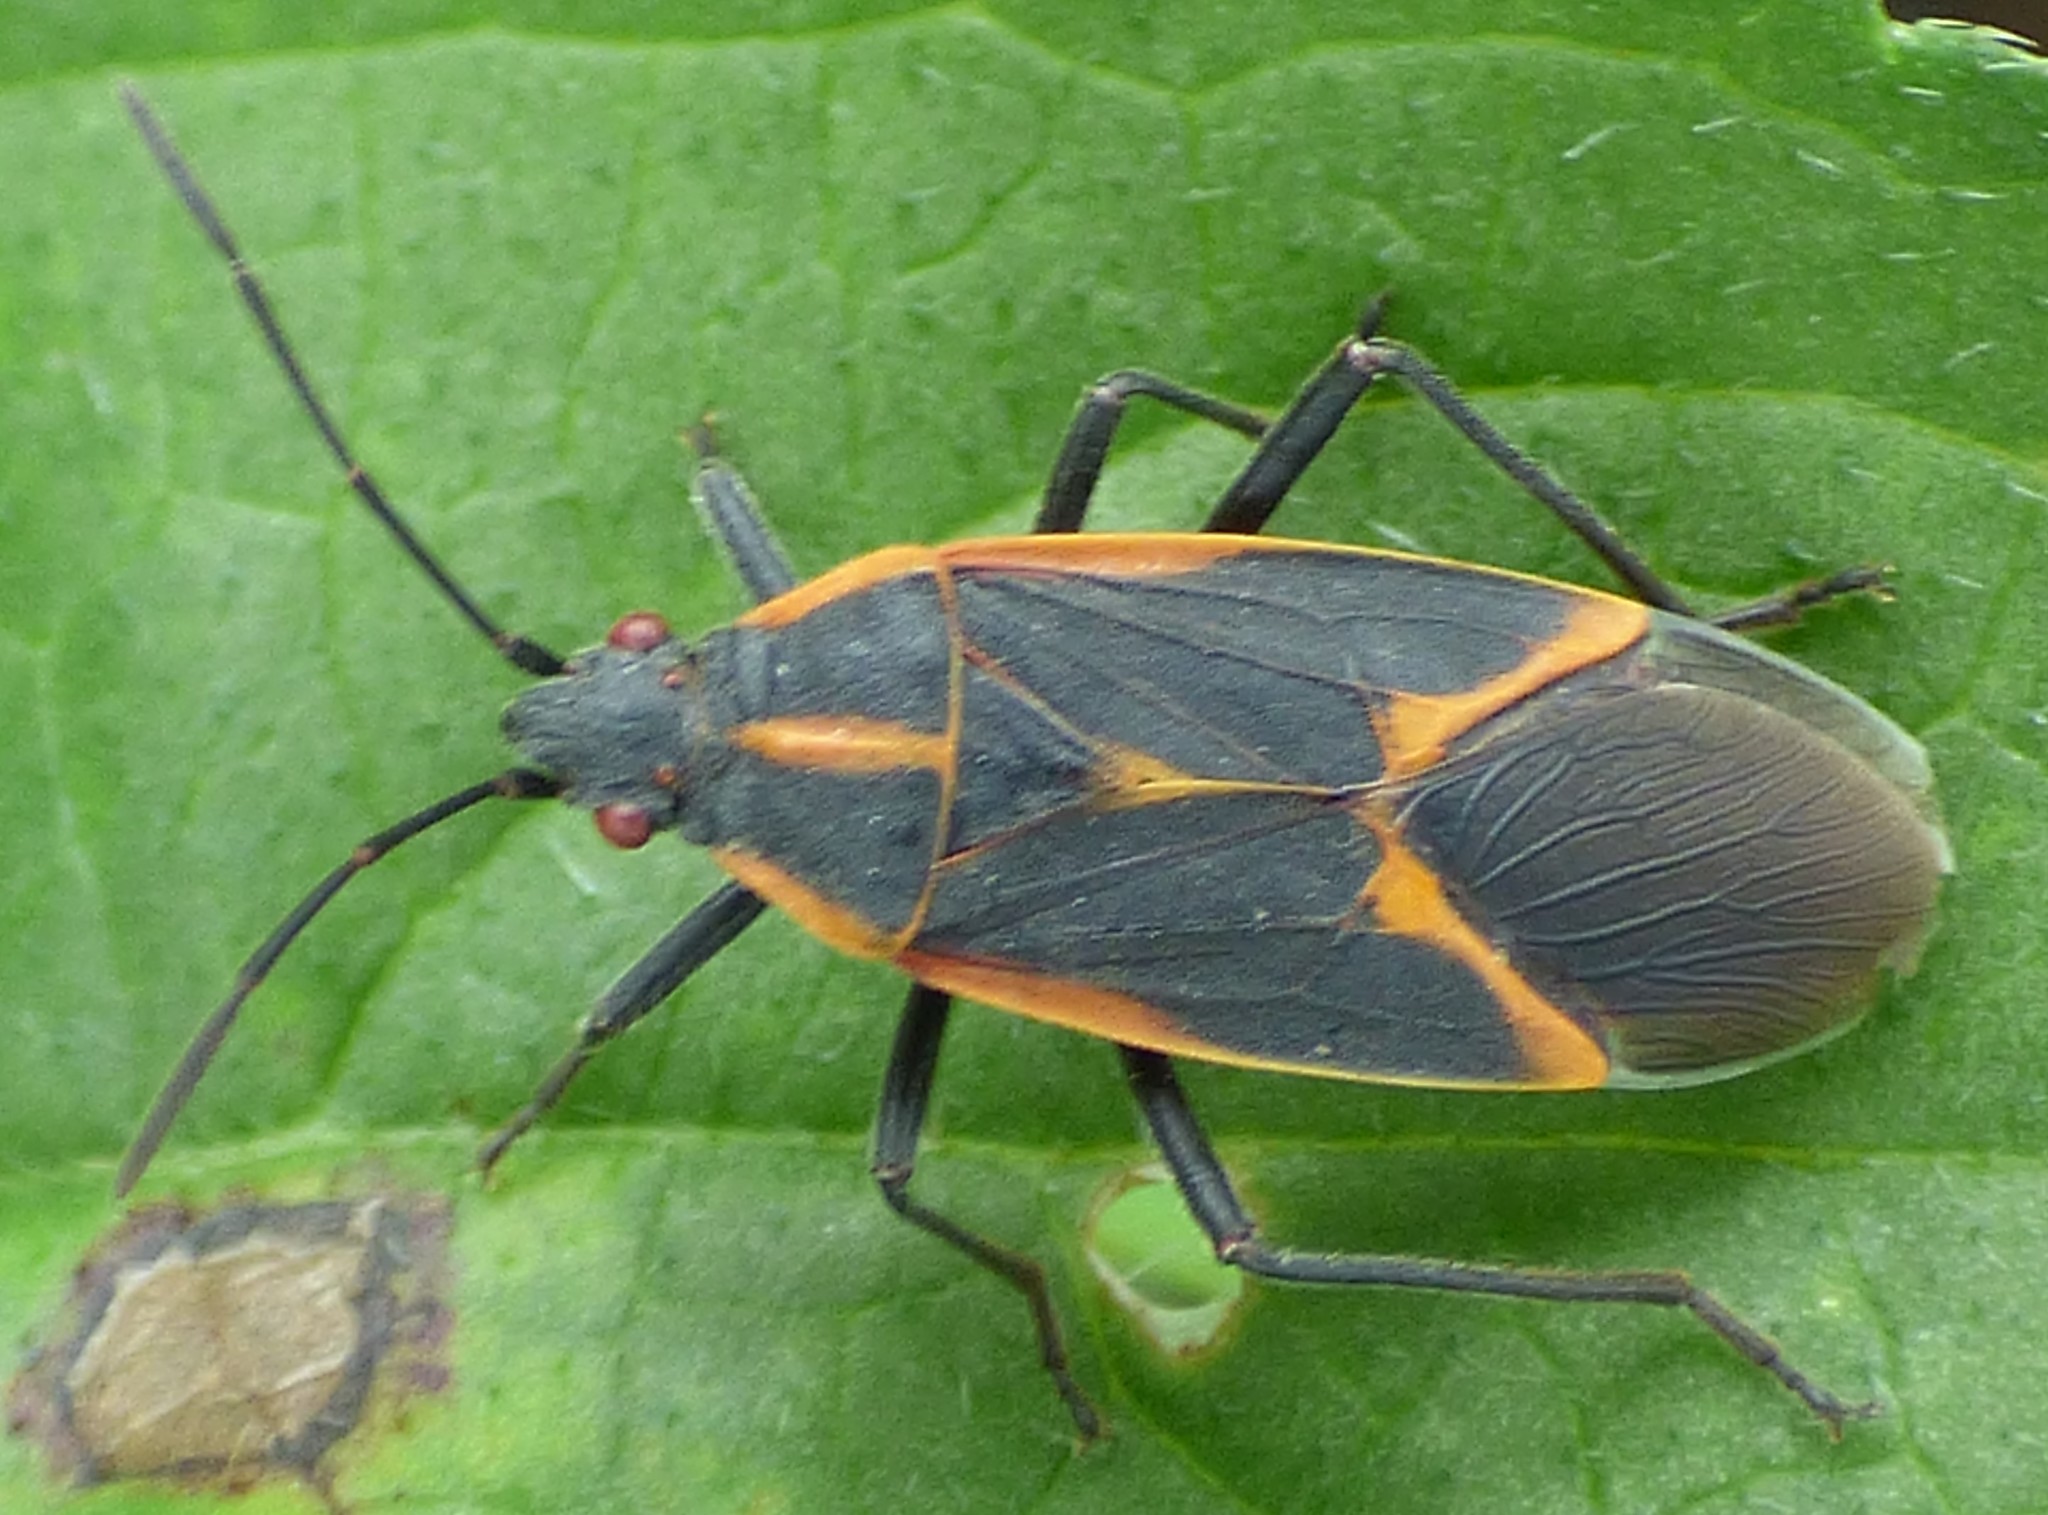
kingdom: Animalia
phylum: Arthropoda
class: Insecta
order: Hemiptera
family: Rhopalidae
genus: Boisea
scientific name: Boisea trivittata
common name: Boxelder bug
